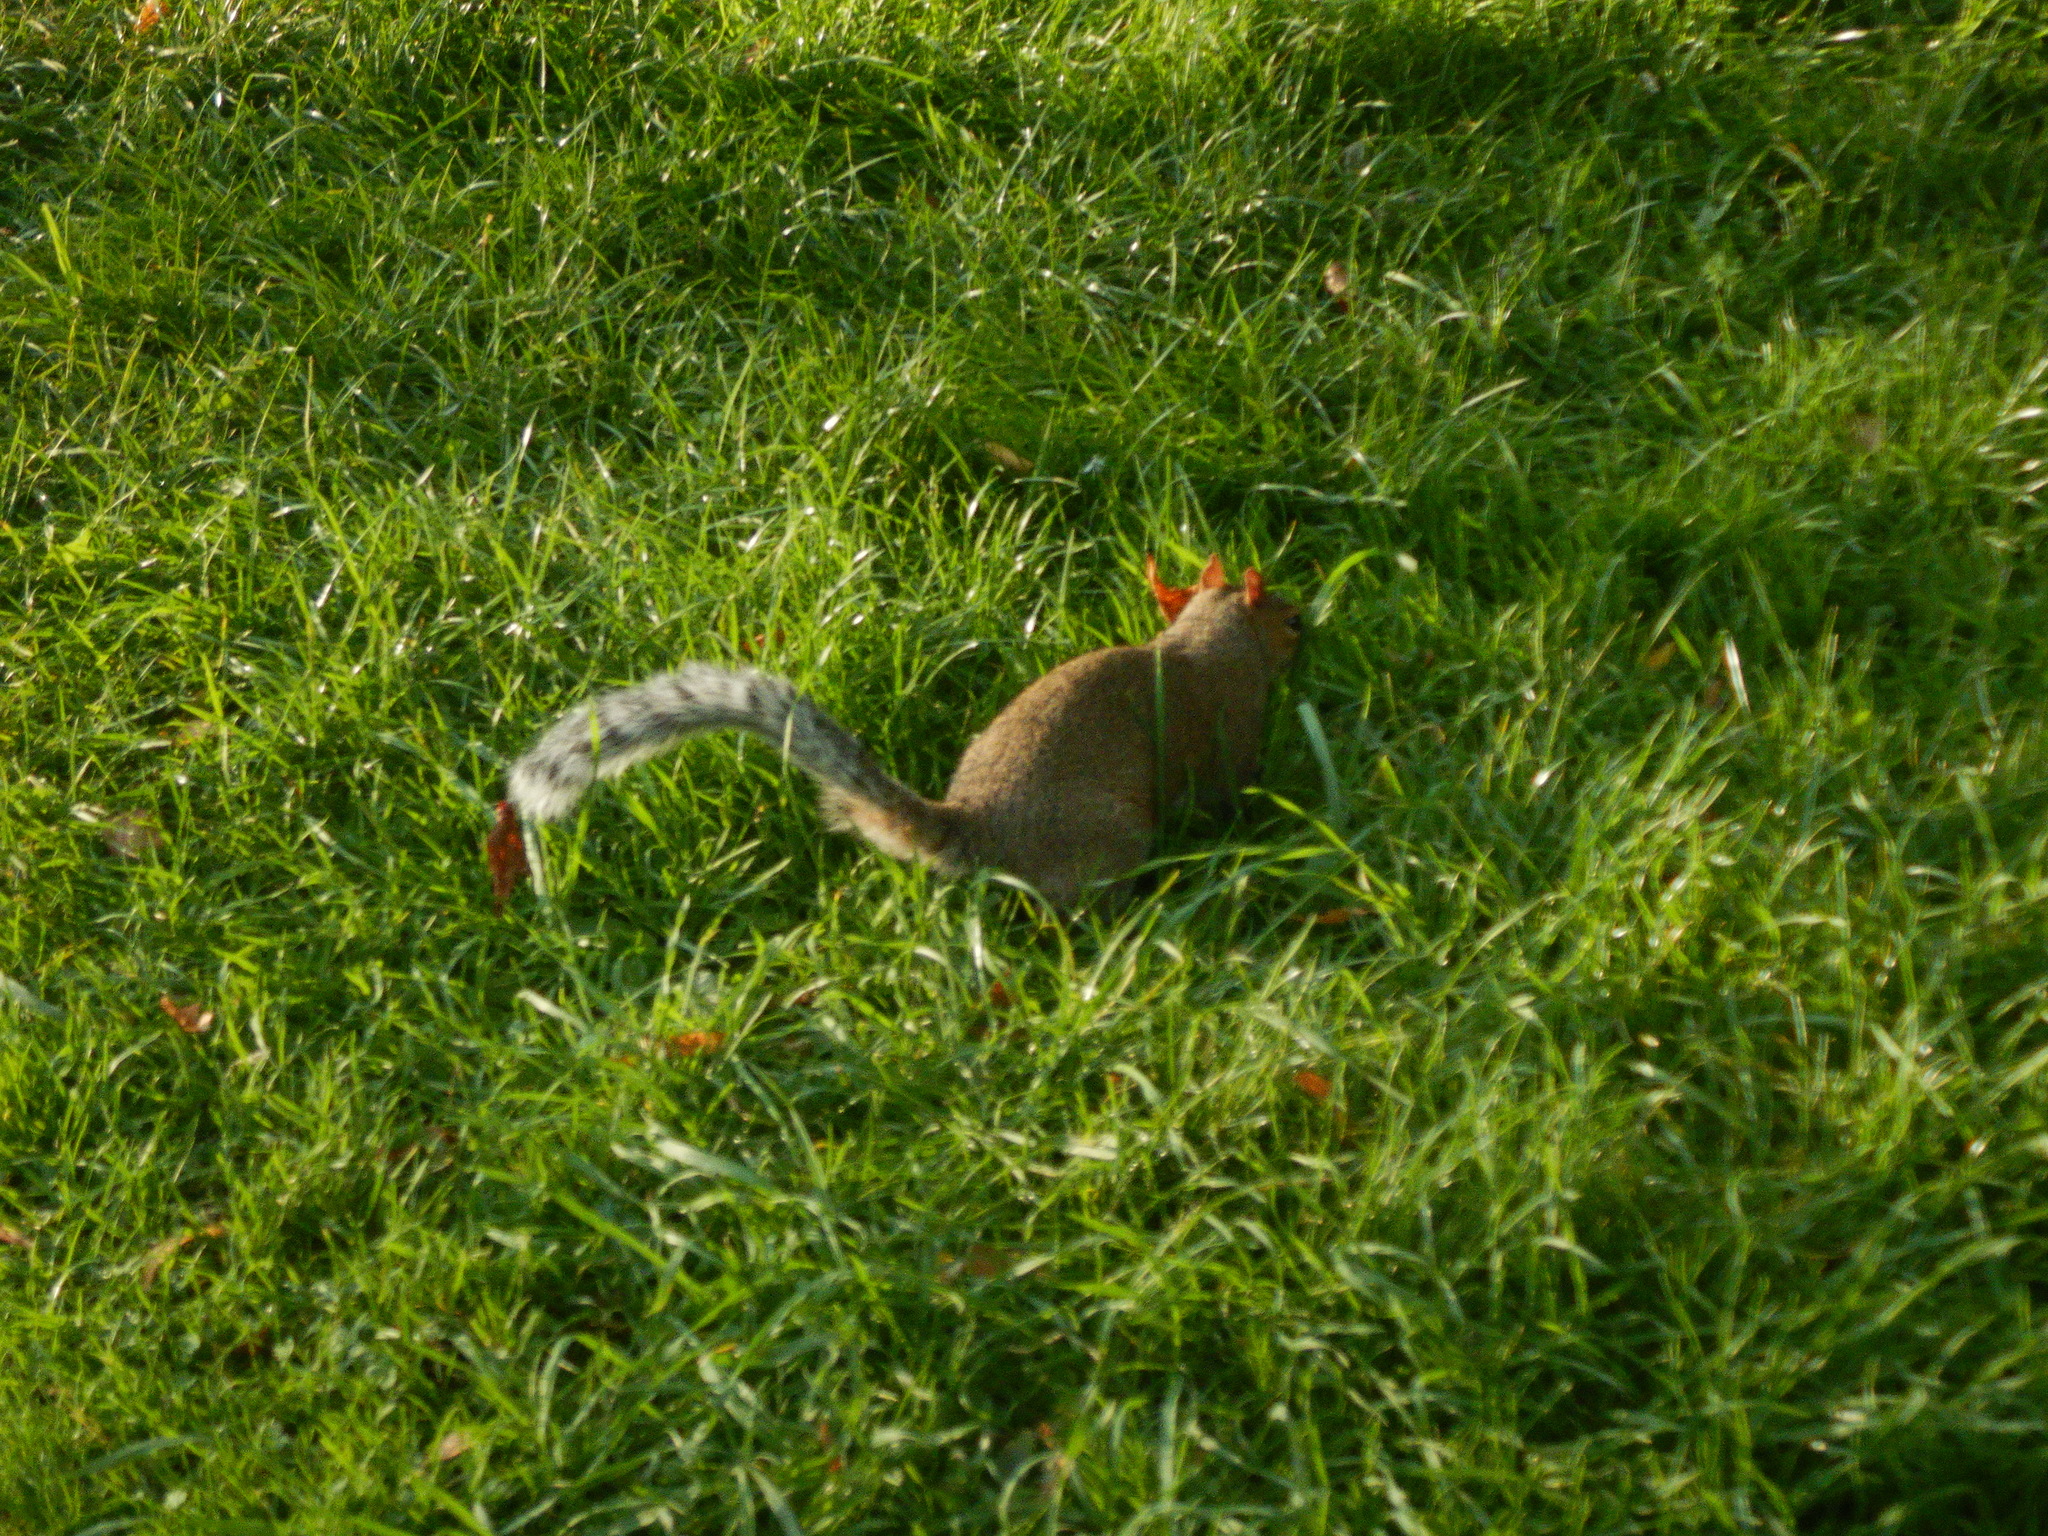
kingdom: Animalia
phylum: Chordata
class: Mammalia
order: Rodentia
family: Sciuridae
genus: Sciurus
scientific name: Sciurus carolinensis
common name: Eastern gray squirrel
